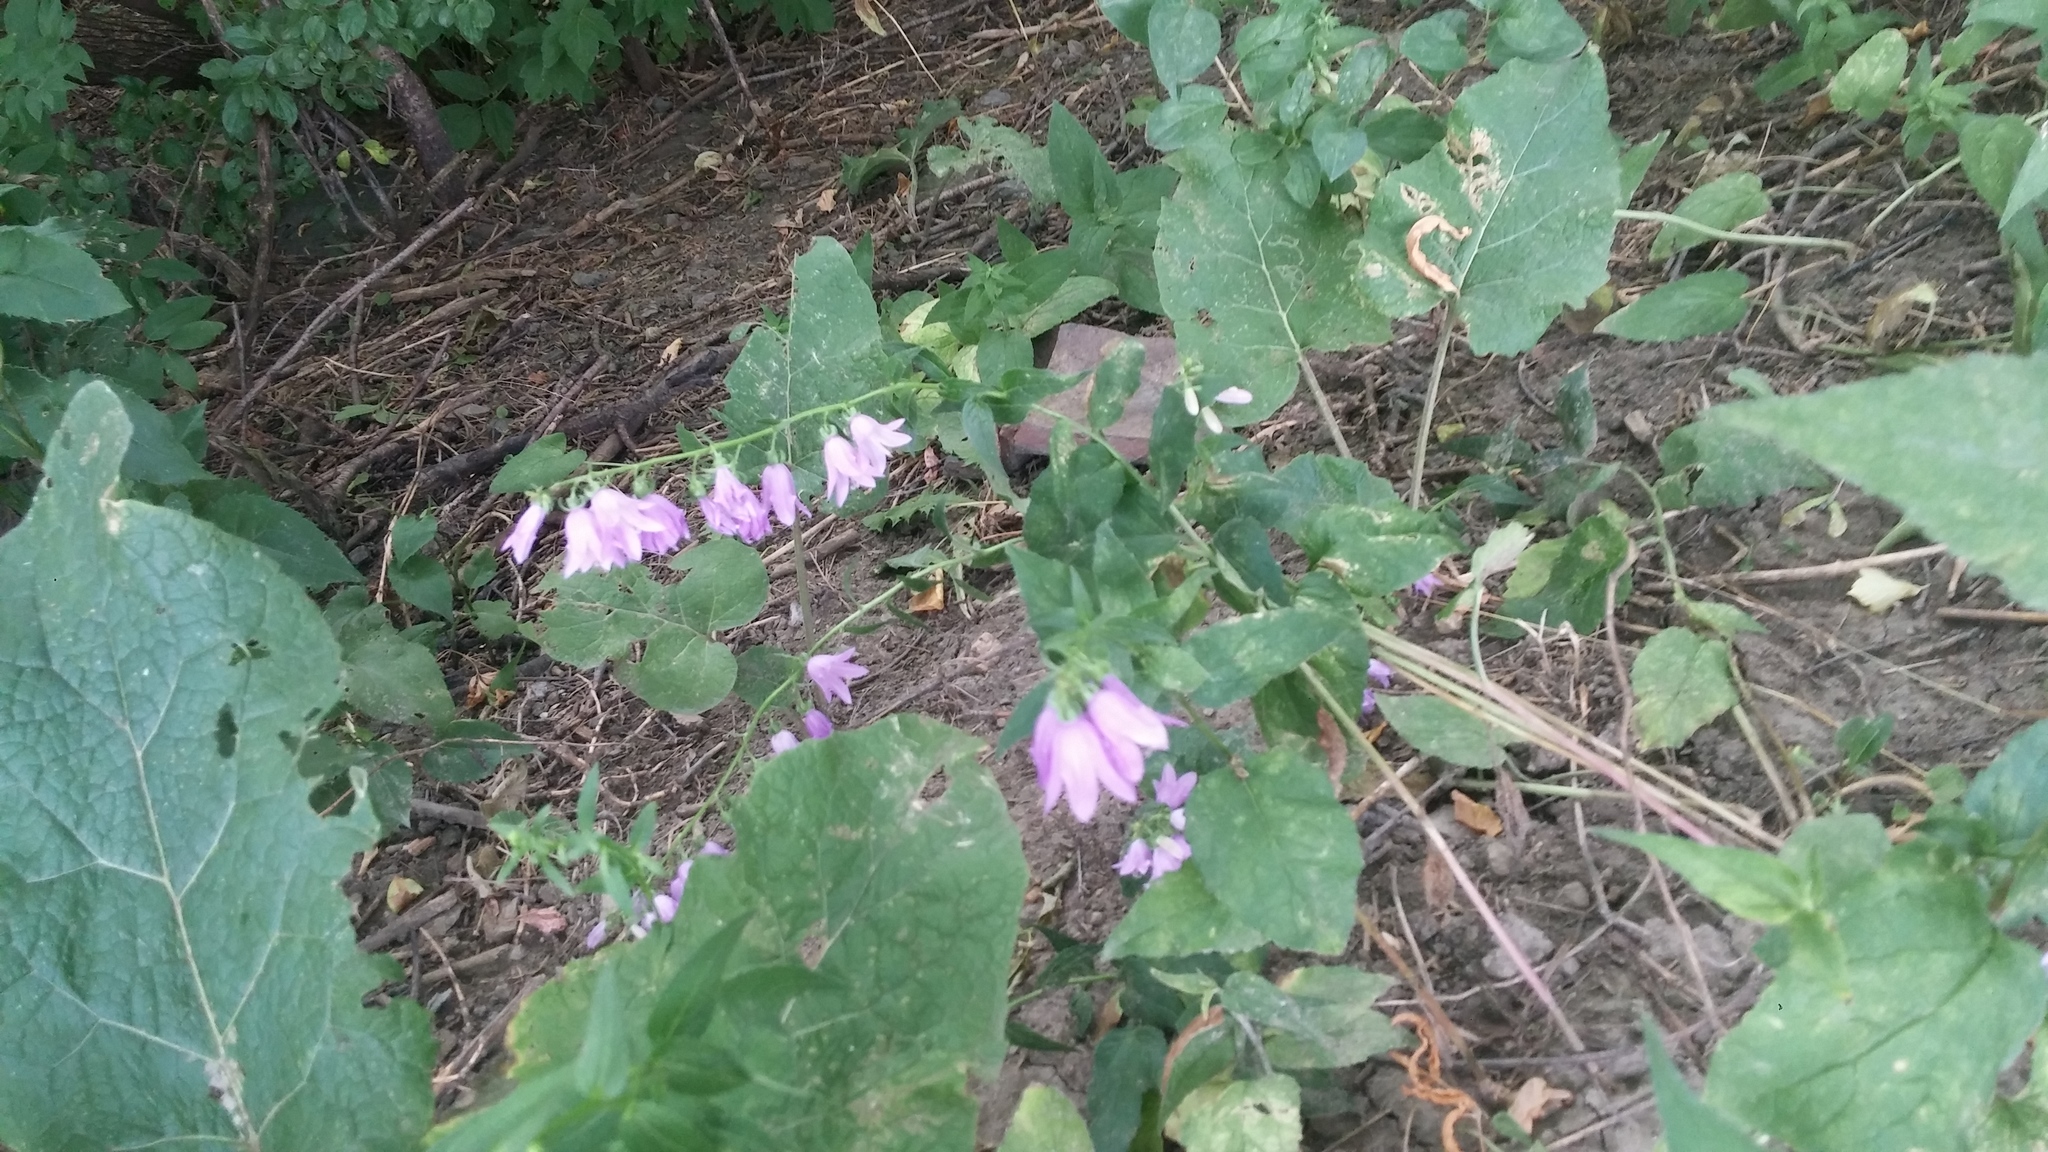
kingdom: Plantae
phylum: Tracheophyta
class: Magnoliopsida
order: Asterales
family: Campanulaceae
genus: Campanula
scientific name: Campanula rapunculoides
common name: Creeping bellflower
